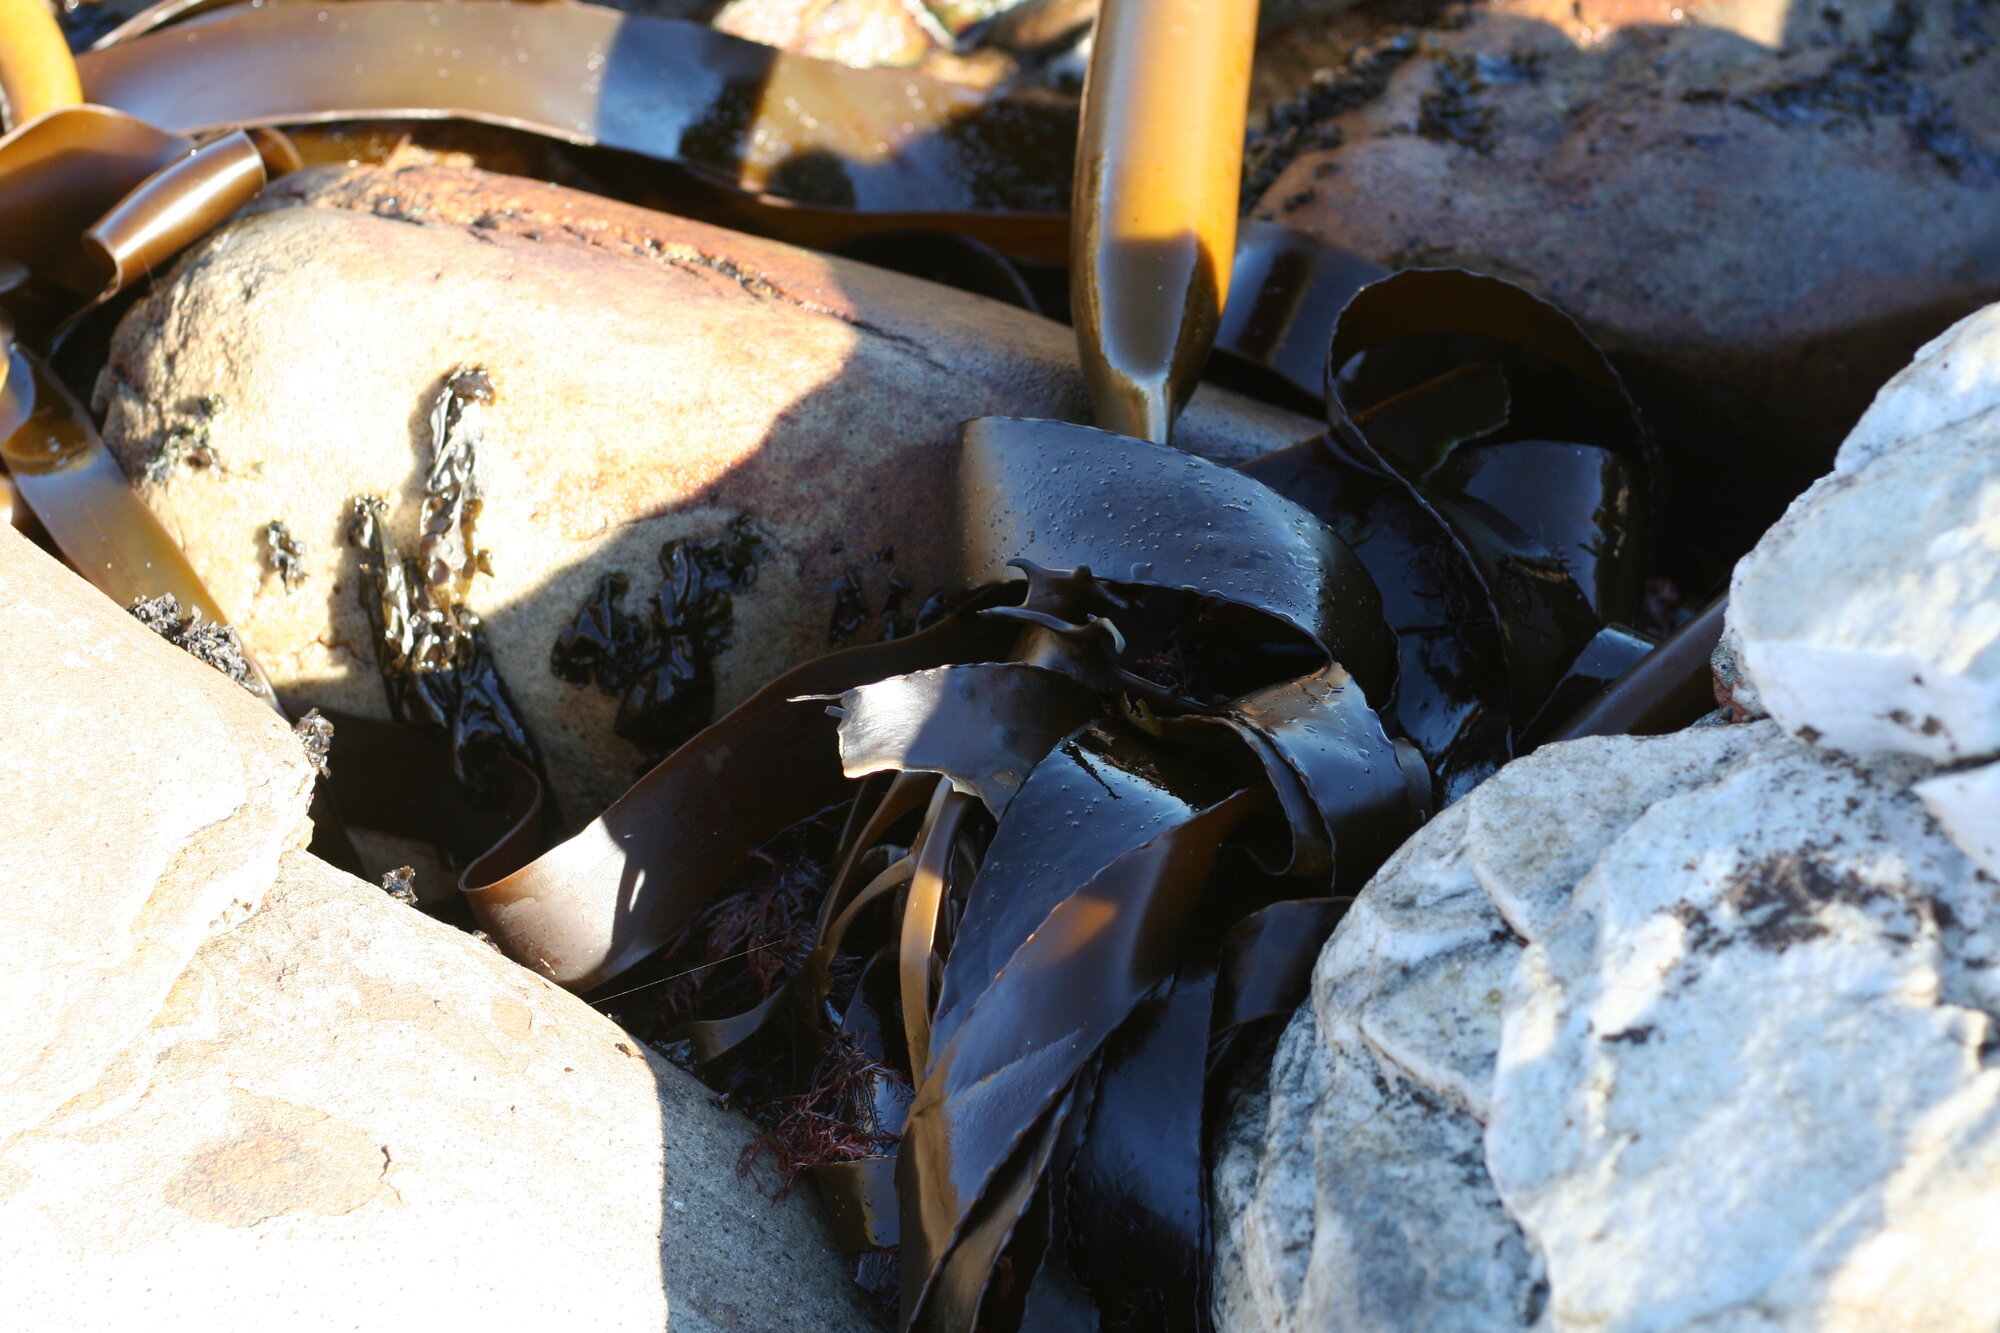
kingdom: Chromista
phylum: Ochrophyta
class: Phaeophyceae
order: Laminariales
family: Lessoniaceae
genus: Ecklonia
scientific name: Ecklonia
